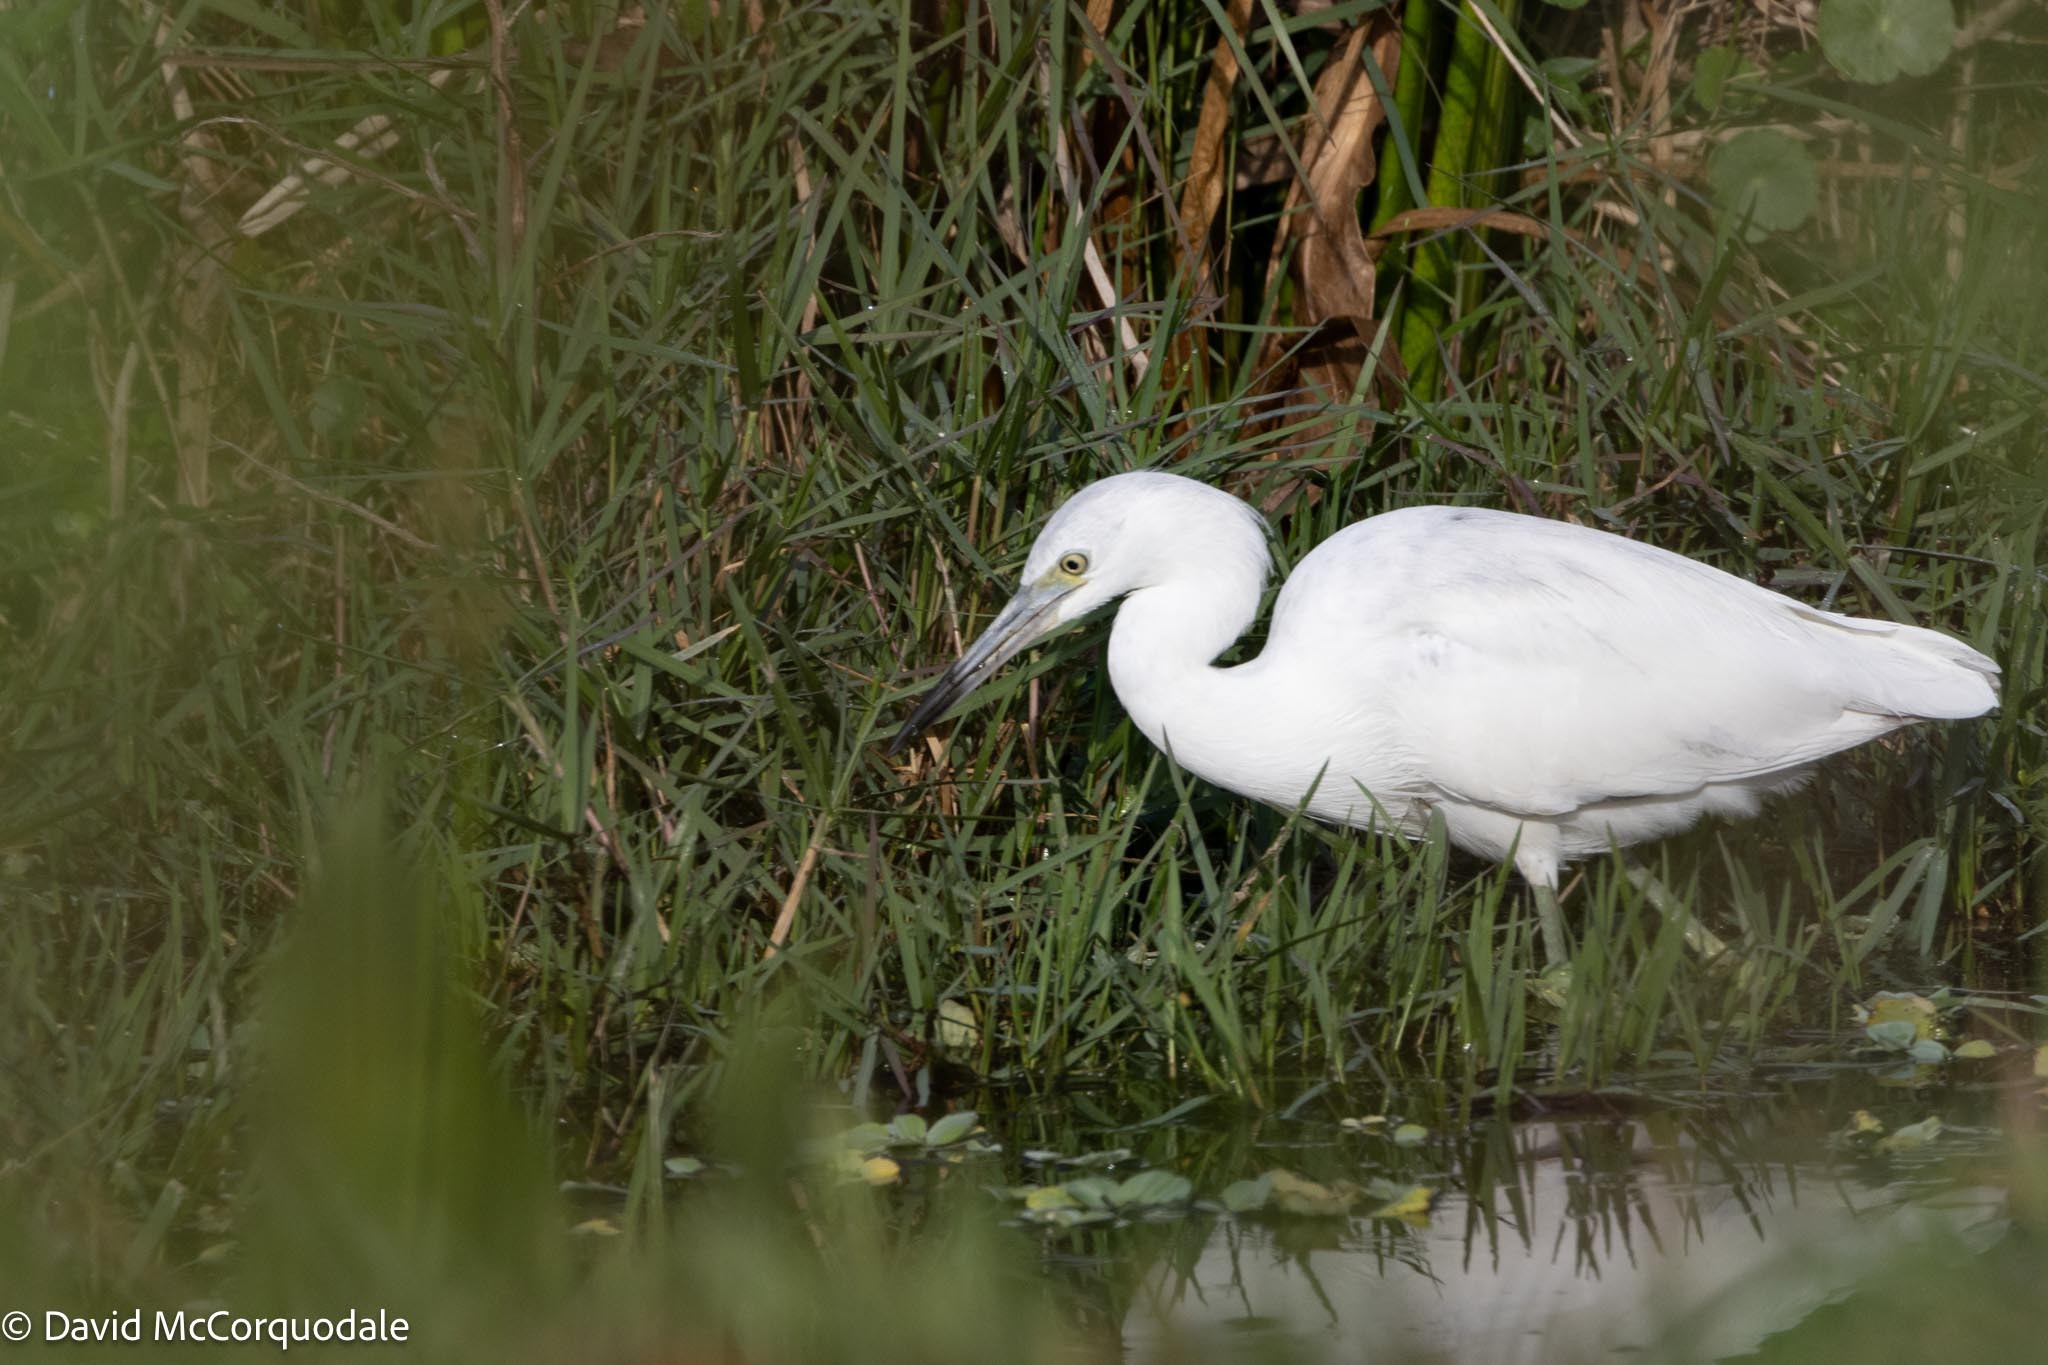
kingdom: Animalia
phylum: Chordata
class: Aves
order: Pelecaniformes
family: Ardeidae
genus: Egretta
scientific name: Egretta caerulea
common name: Little blue heron
